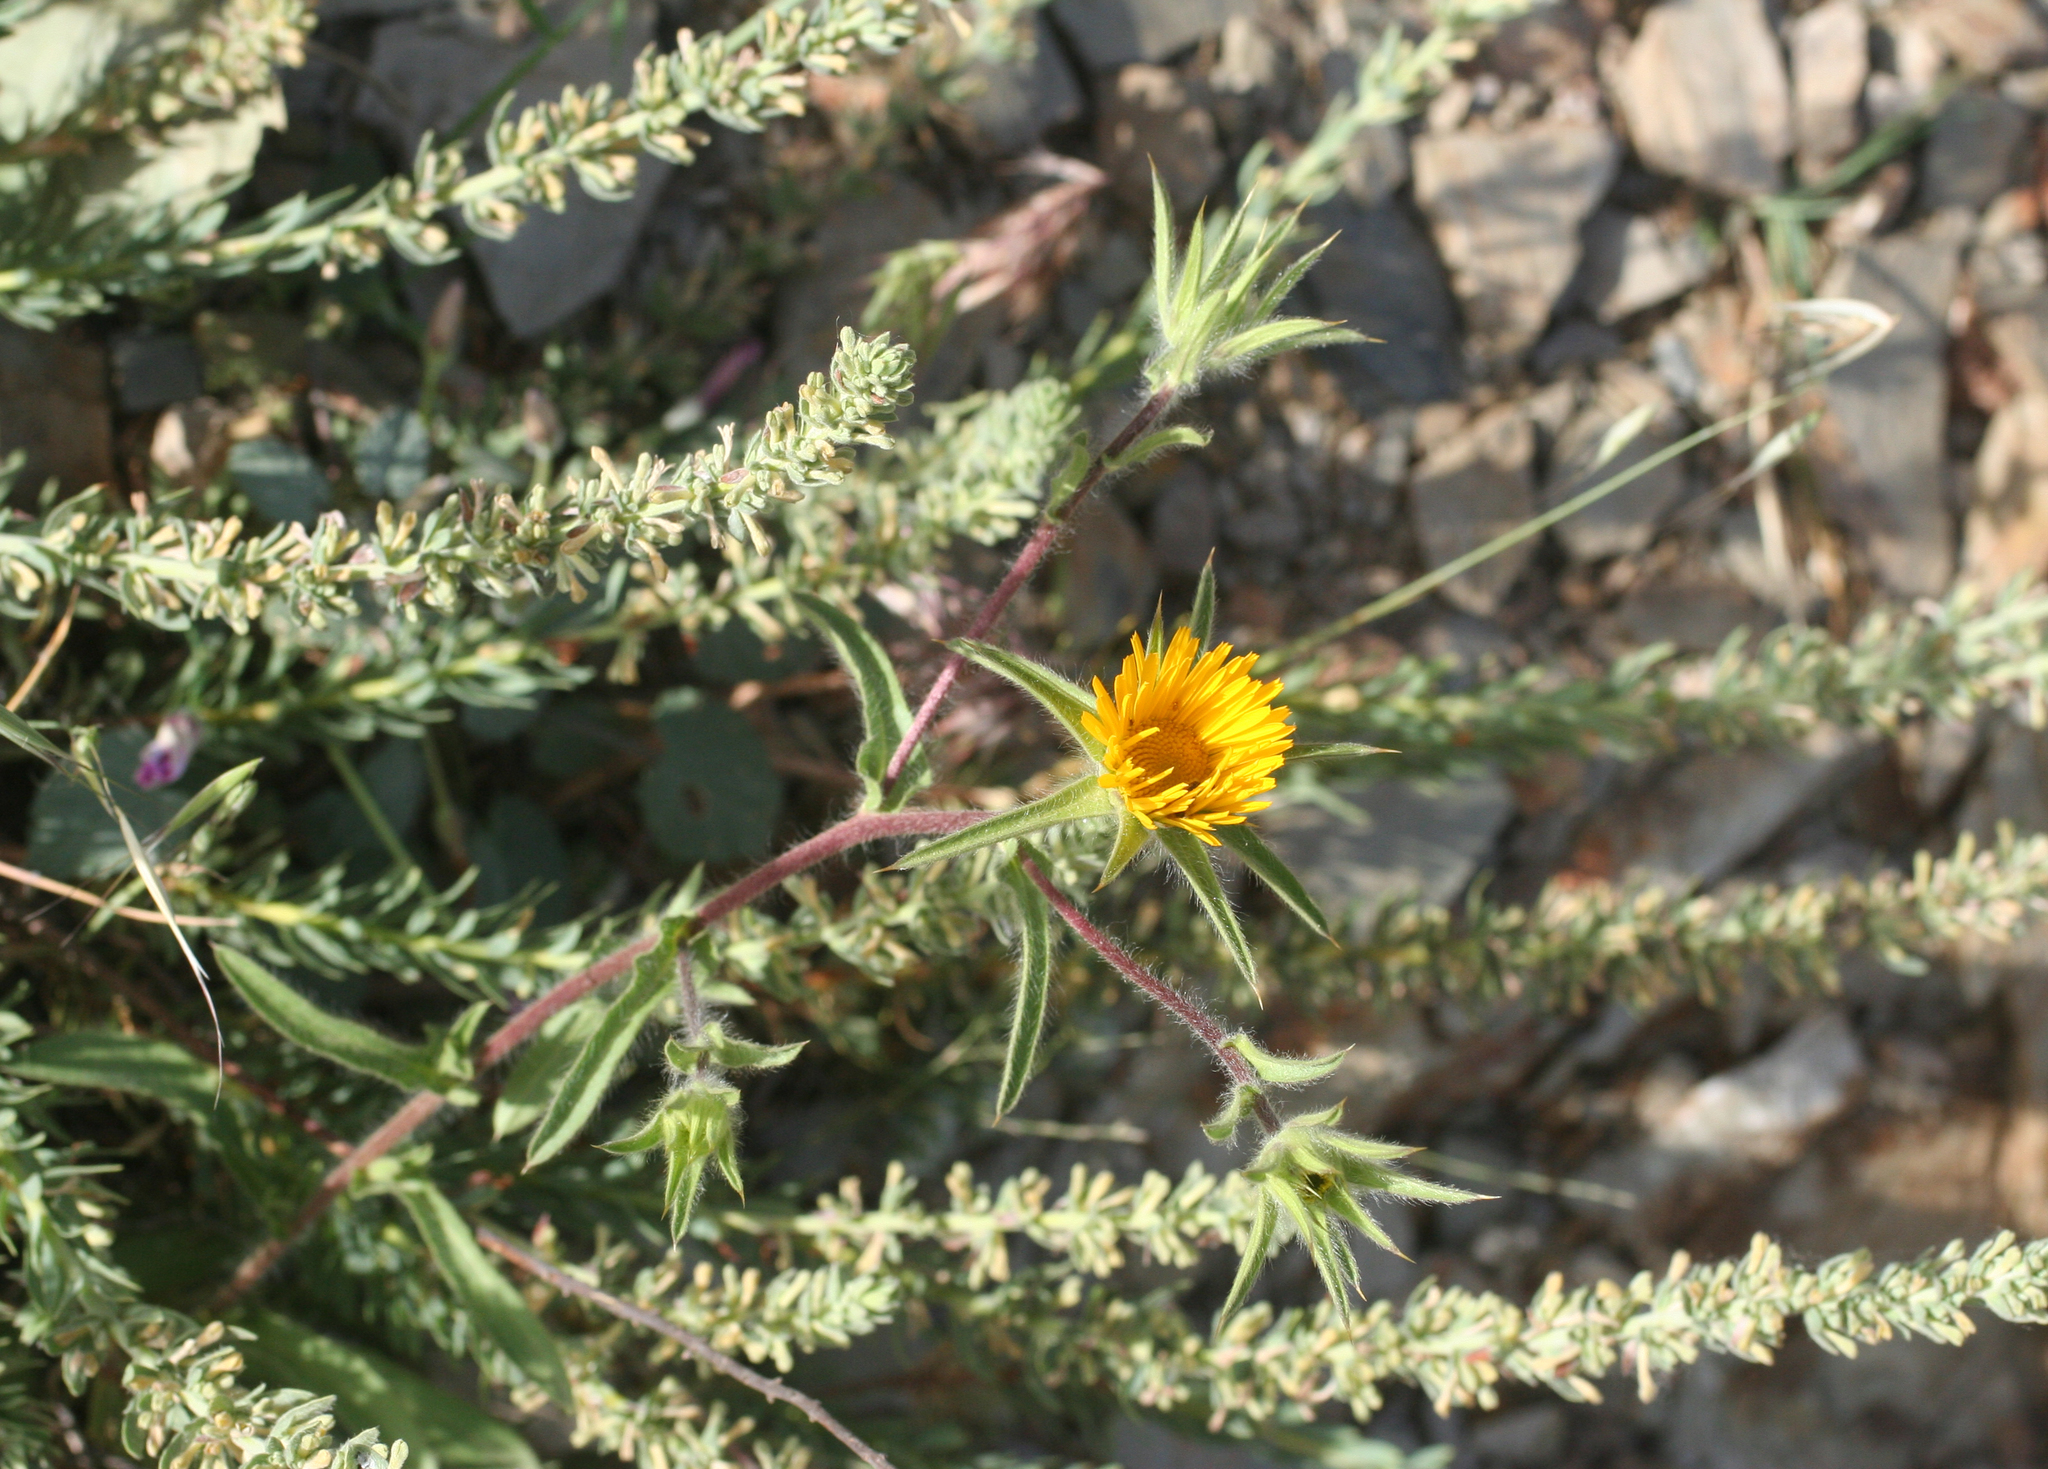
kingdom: Plantae
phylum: Tracheophyta
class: Magnoliopsida
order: Asterales
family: Asteraceae
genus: Pallenis
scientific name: Pallenis spinosa
